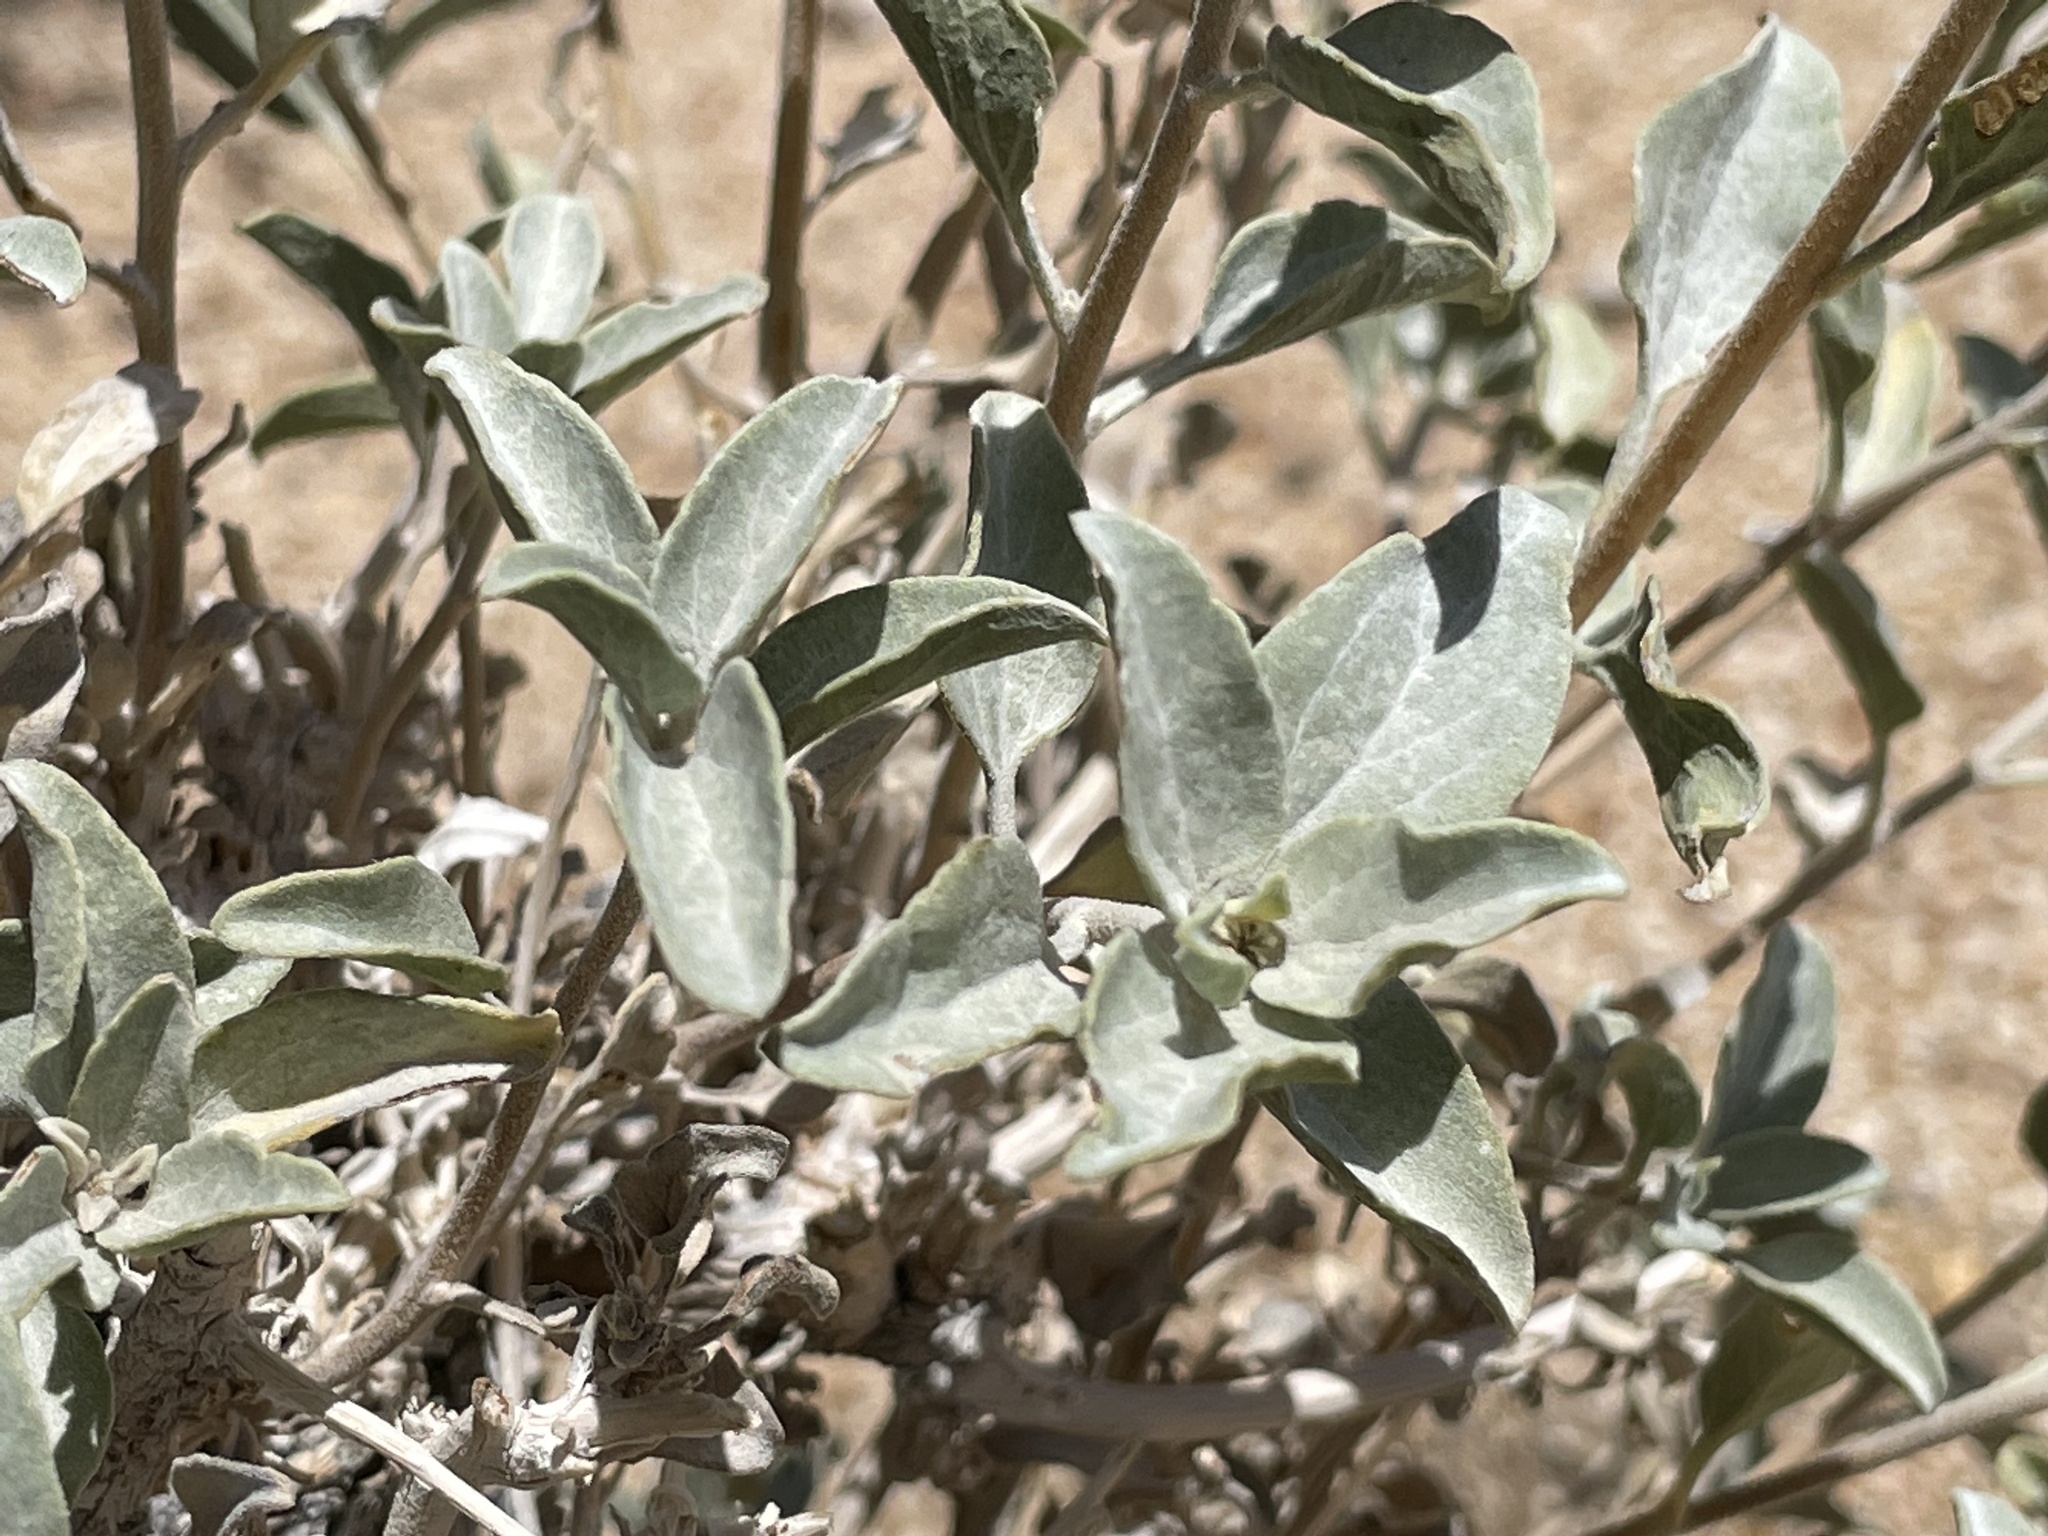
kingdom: Plantae
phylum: Tracheophyta
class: Magnoliopsida
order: Asterales
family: Asteraceae
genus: Encelia
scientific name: Encelia actoni
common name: Acton encelia
